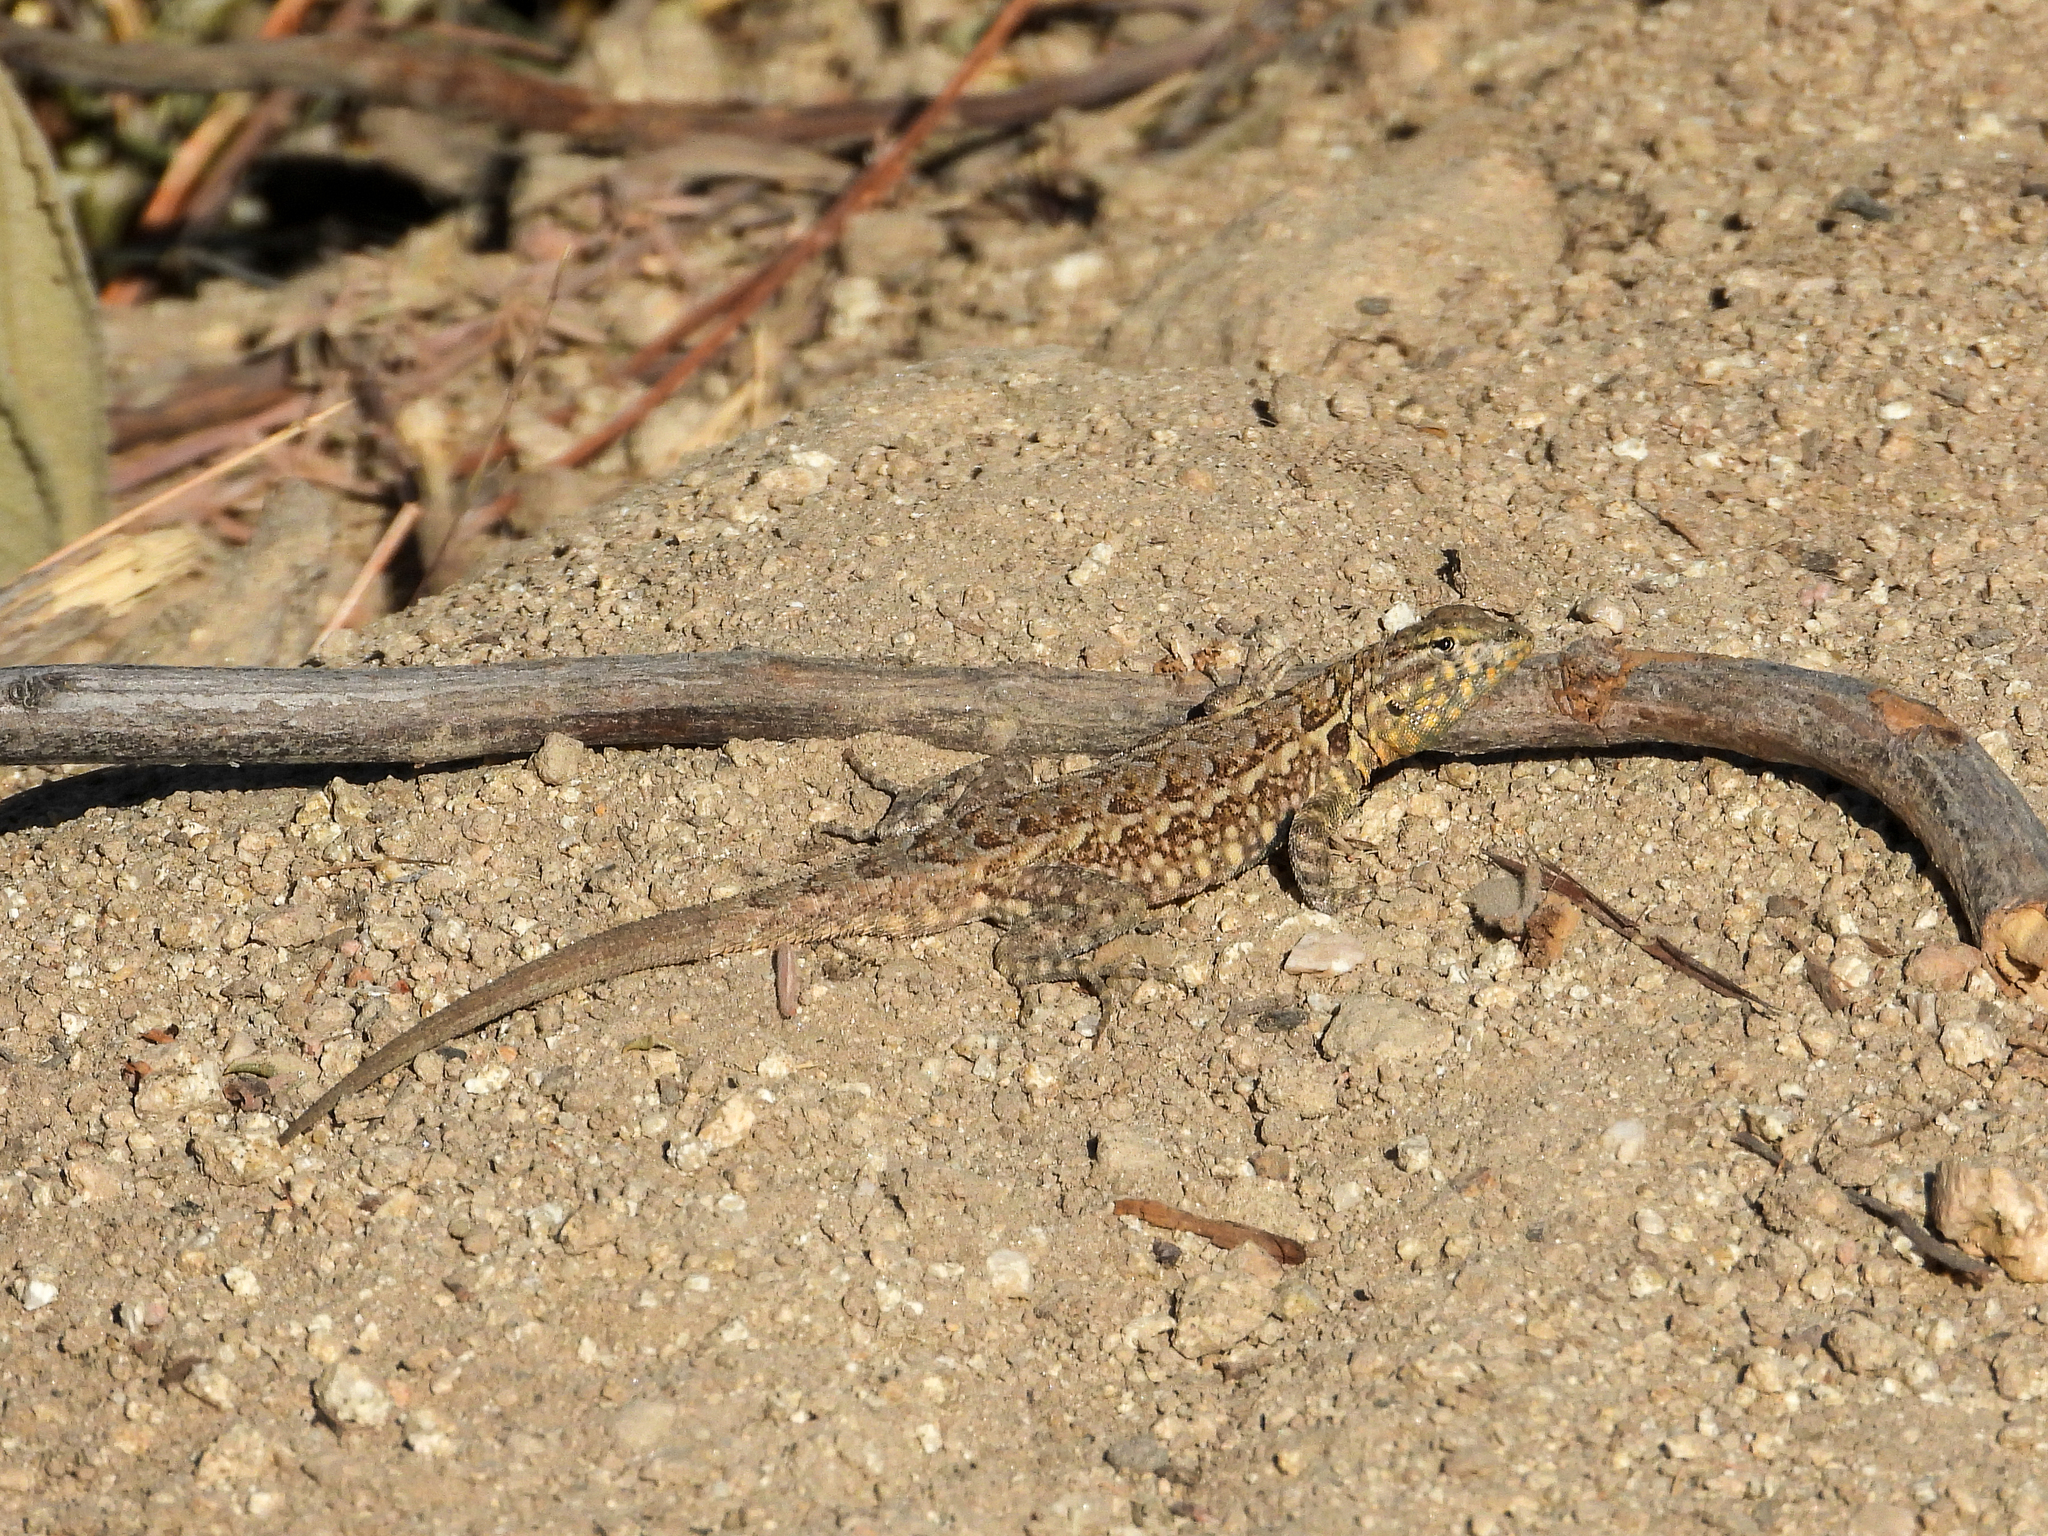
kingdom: Animalia
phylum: Chordata
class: Squamata
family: Phrynosomatidae
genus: Uta
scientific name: Uta stansburiana
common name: Side-blotched lizard
